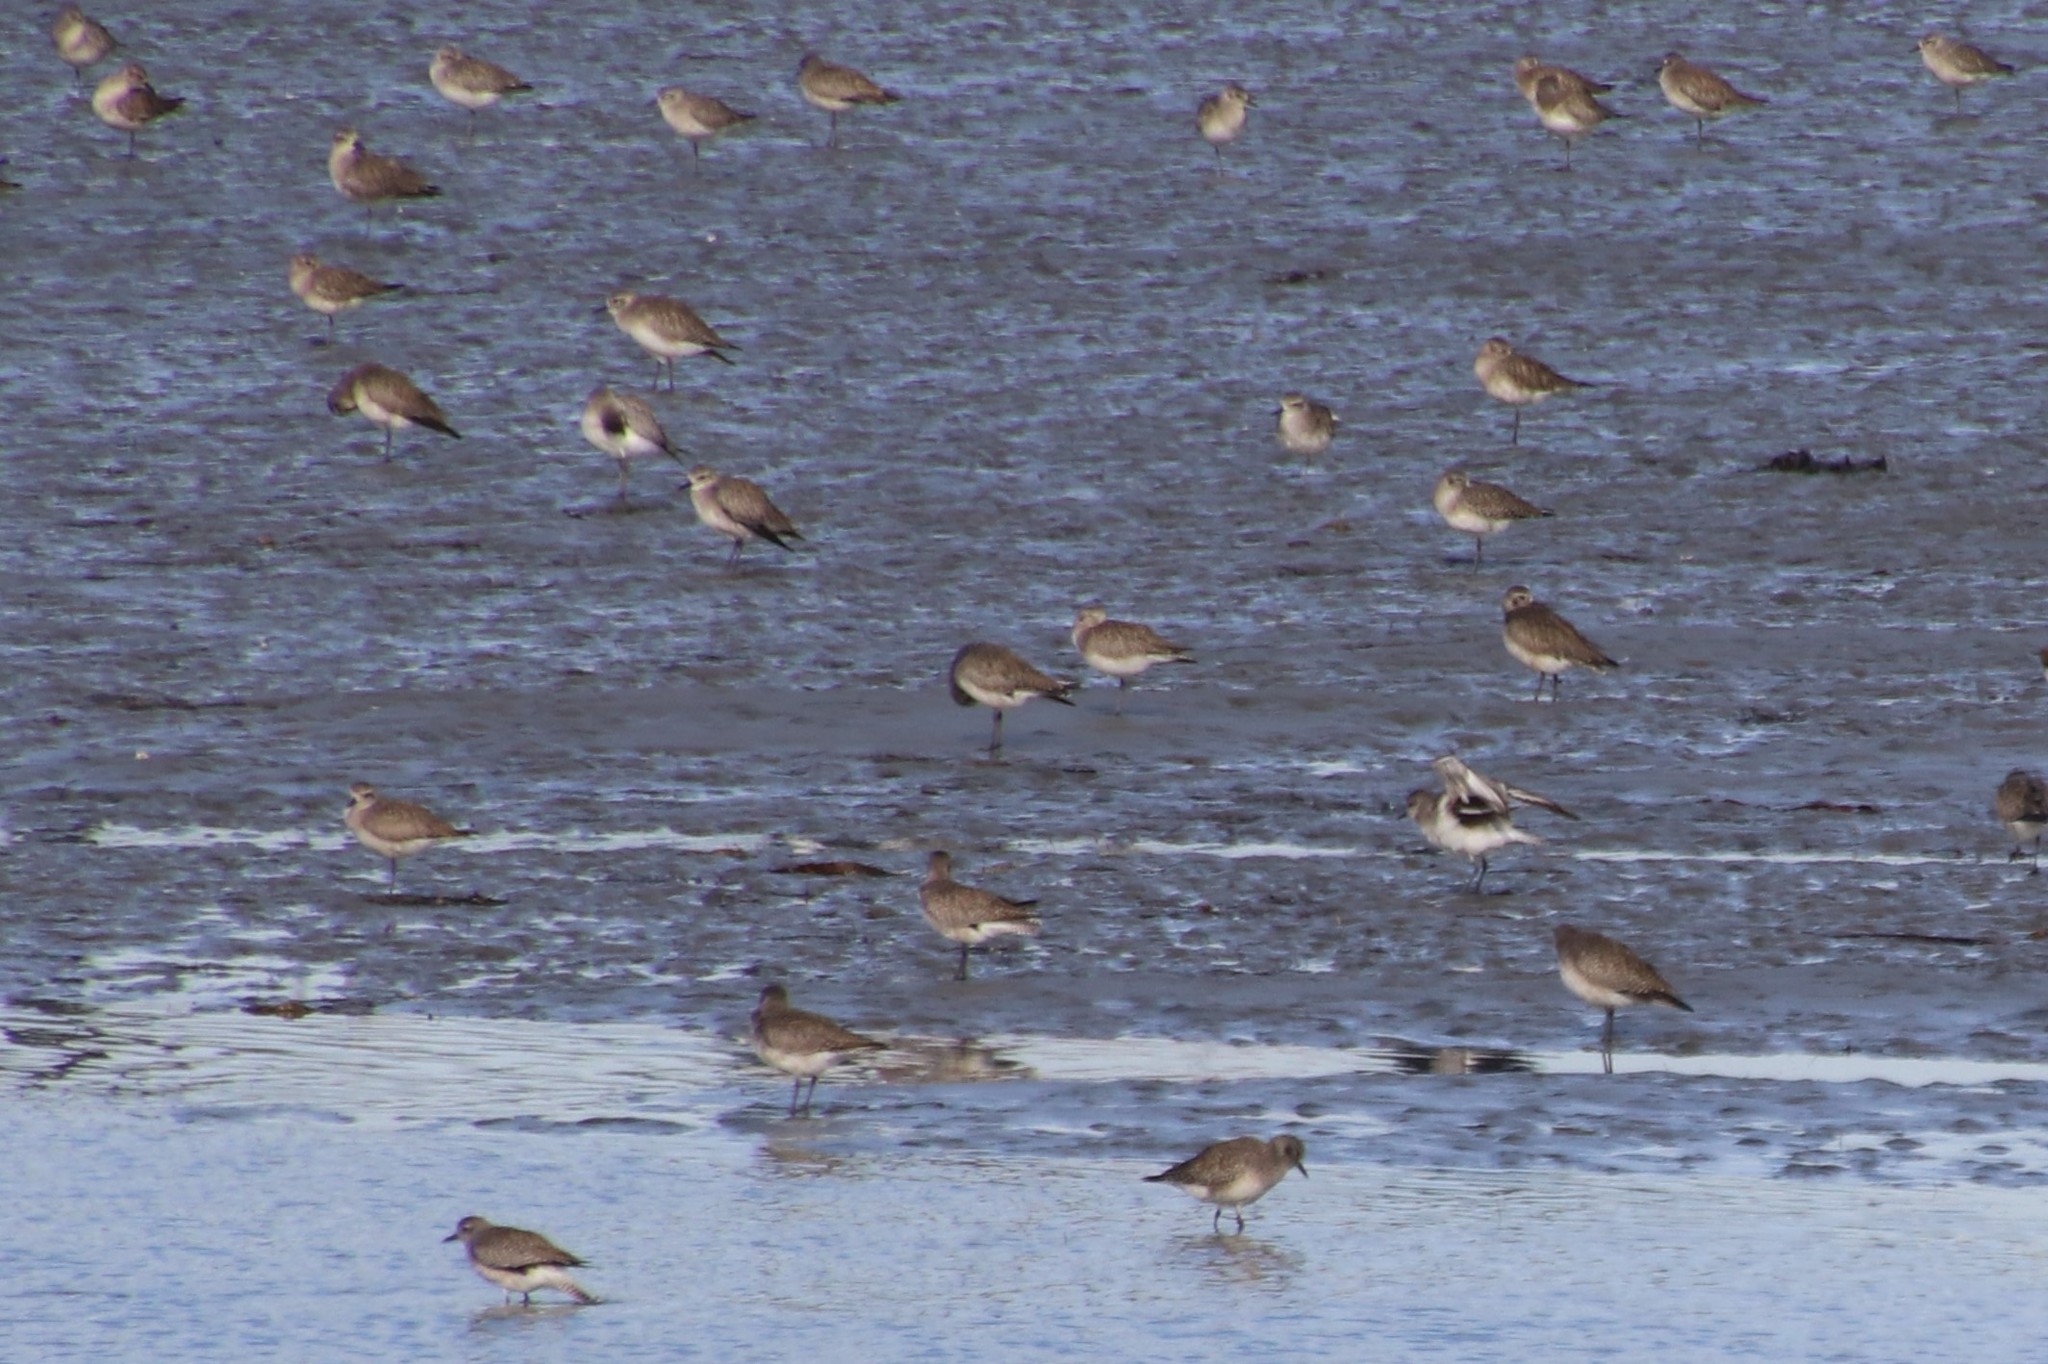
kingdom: Animalia
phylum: Chordata
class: Aves
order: Charadriiformes
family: Charadriidae
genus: Pluvialis
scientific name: Pluvialis squatarola
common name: Grey plover
